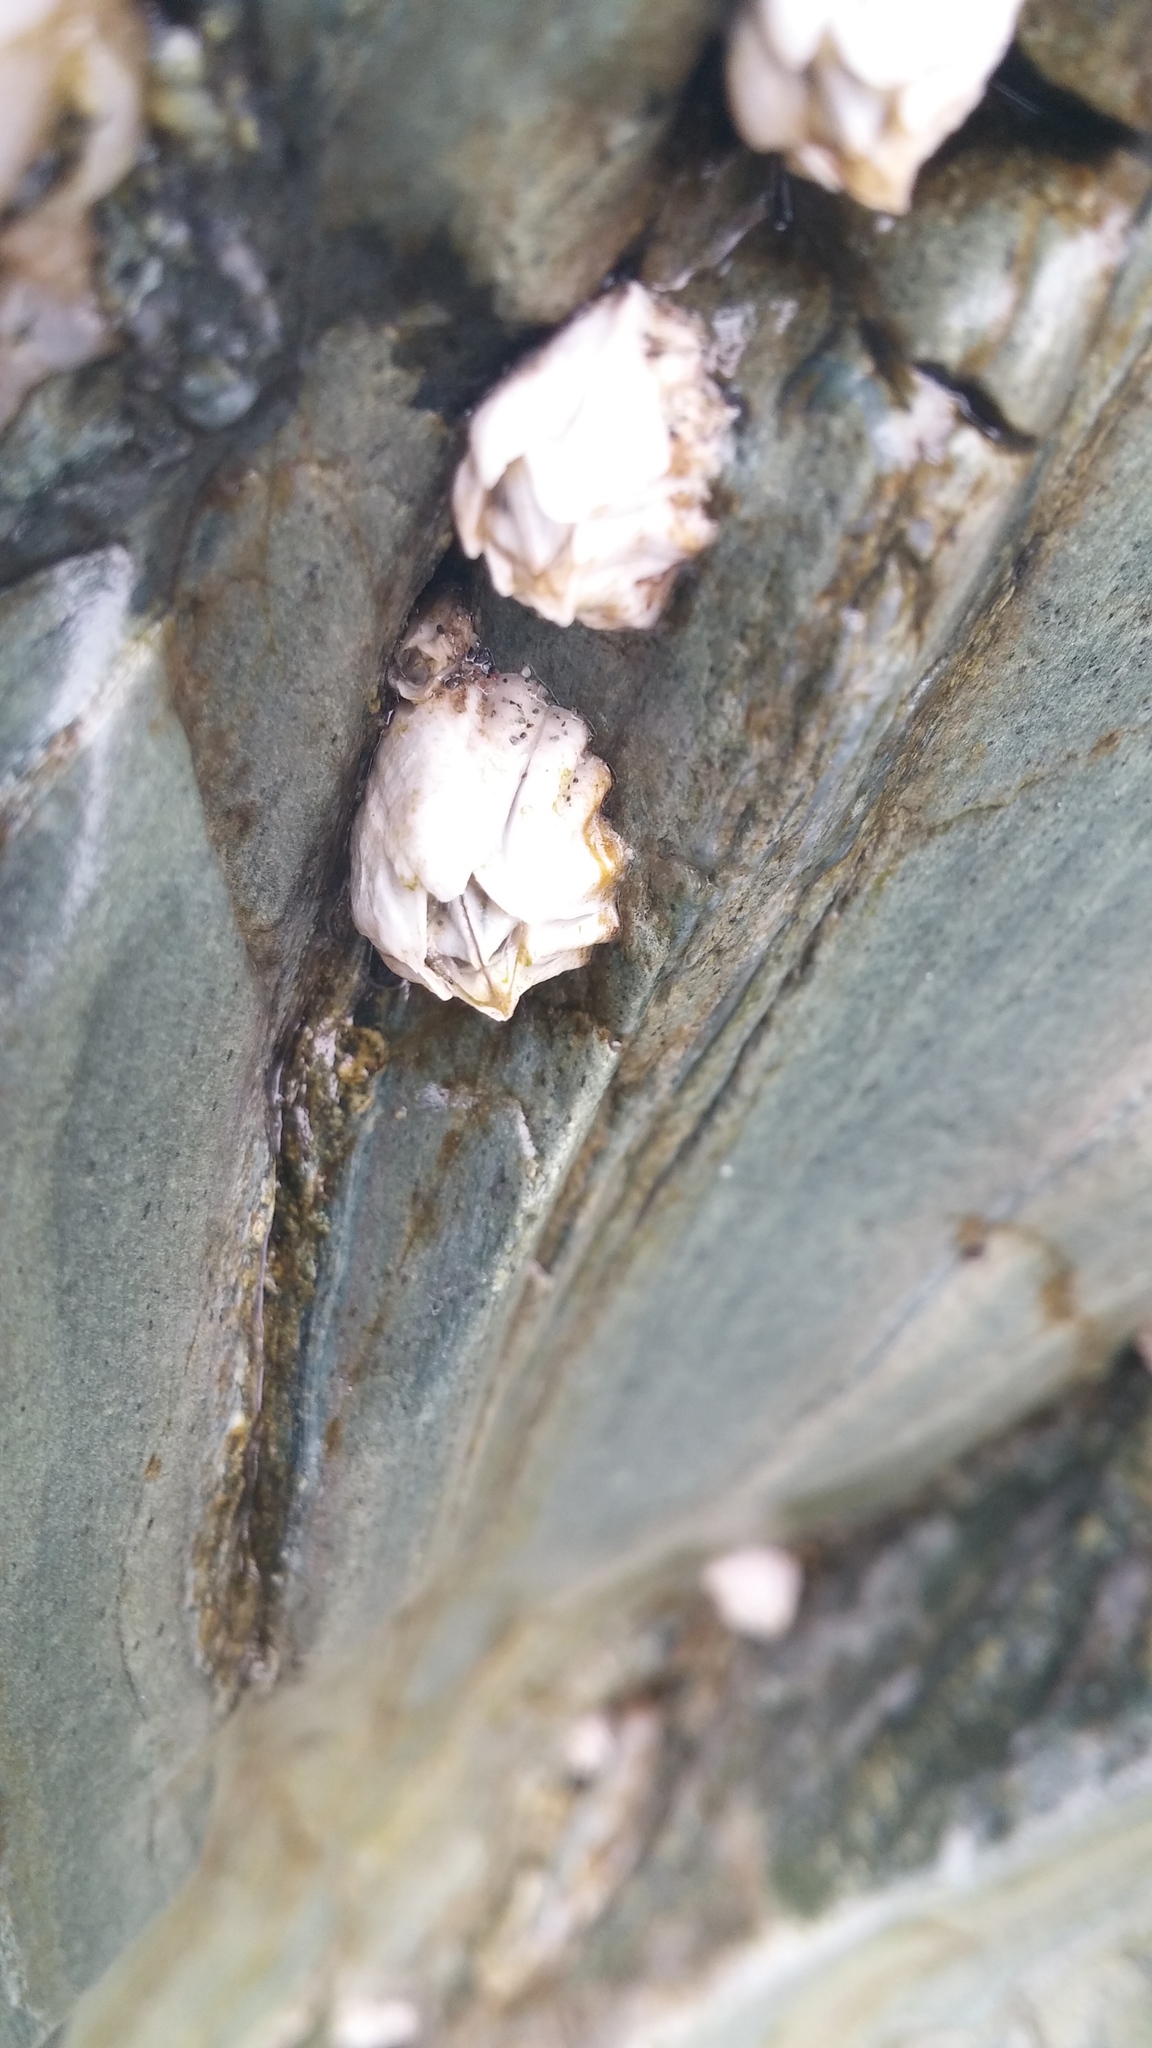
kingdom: Animalia
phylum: Arthropoda
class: Maxillopoda
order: Sessilia
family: Balanidae
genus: Balanus
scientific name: Balanus glandula
